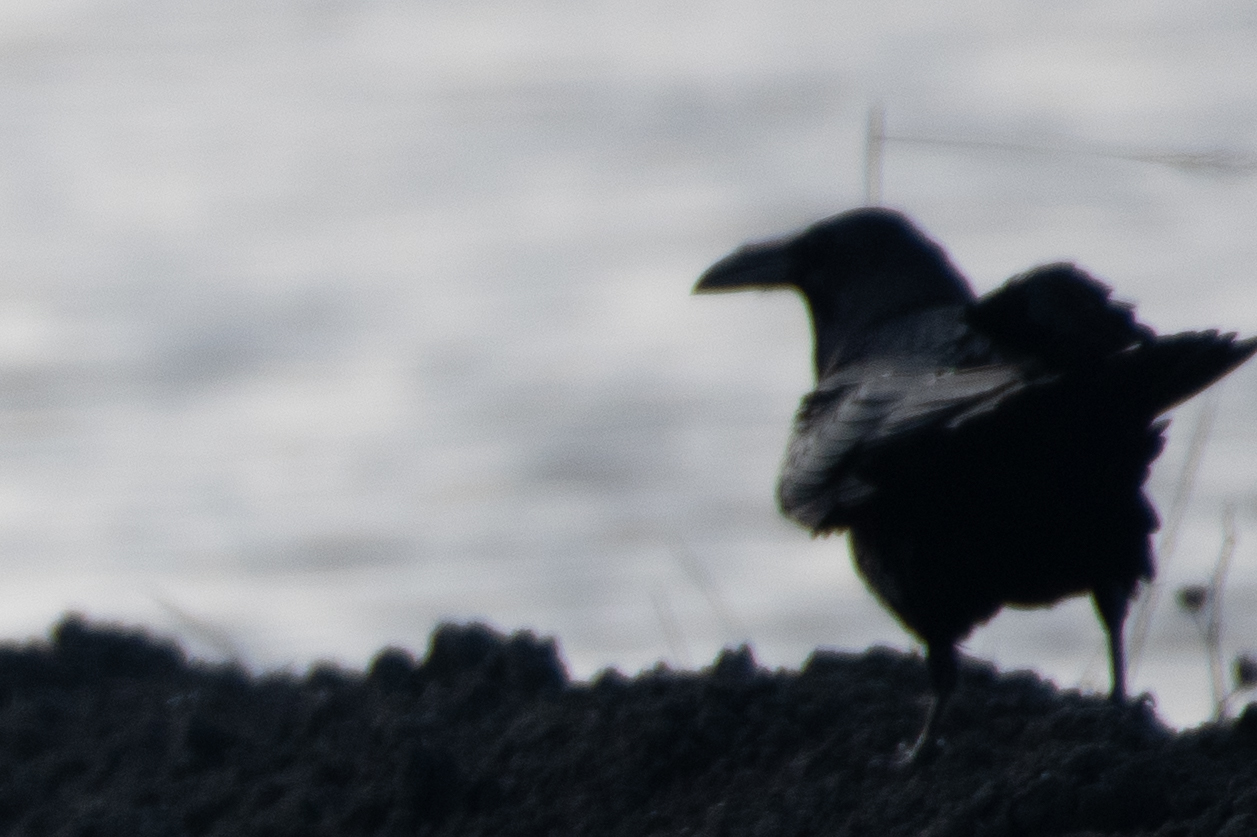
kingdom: Animalia
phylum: Chordata
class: Aves
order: Passeriformes
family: Corvidae
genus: Corvus
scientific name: Corvus corax
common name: Common raven
